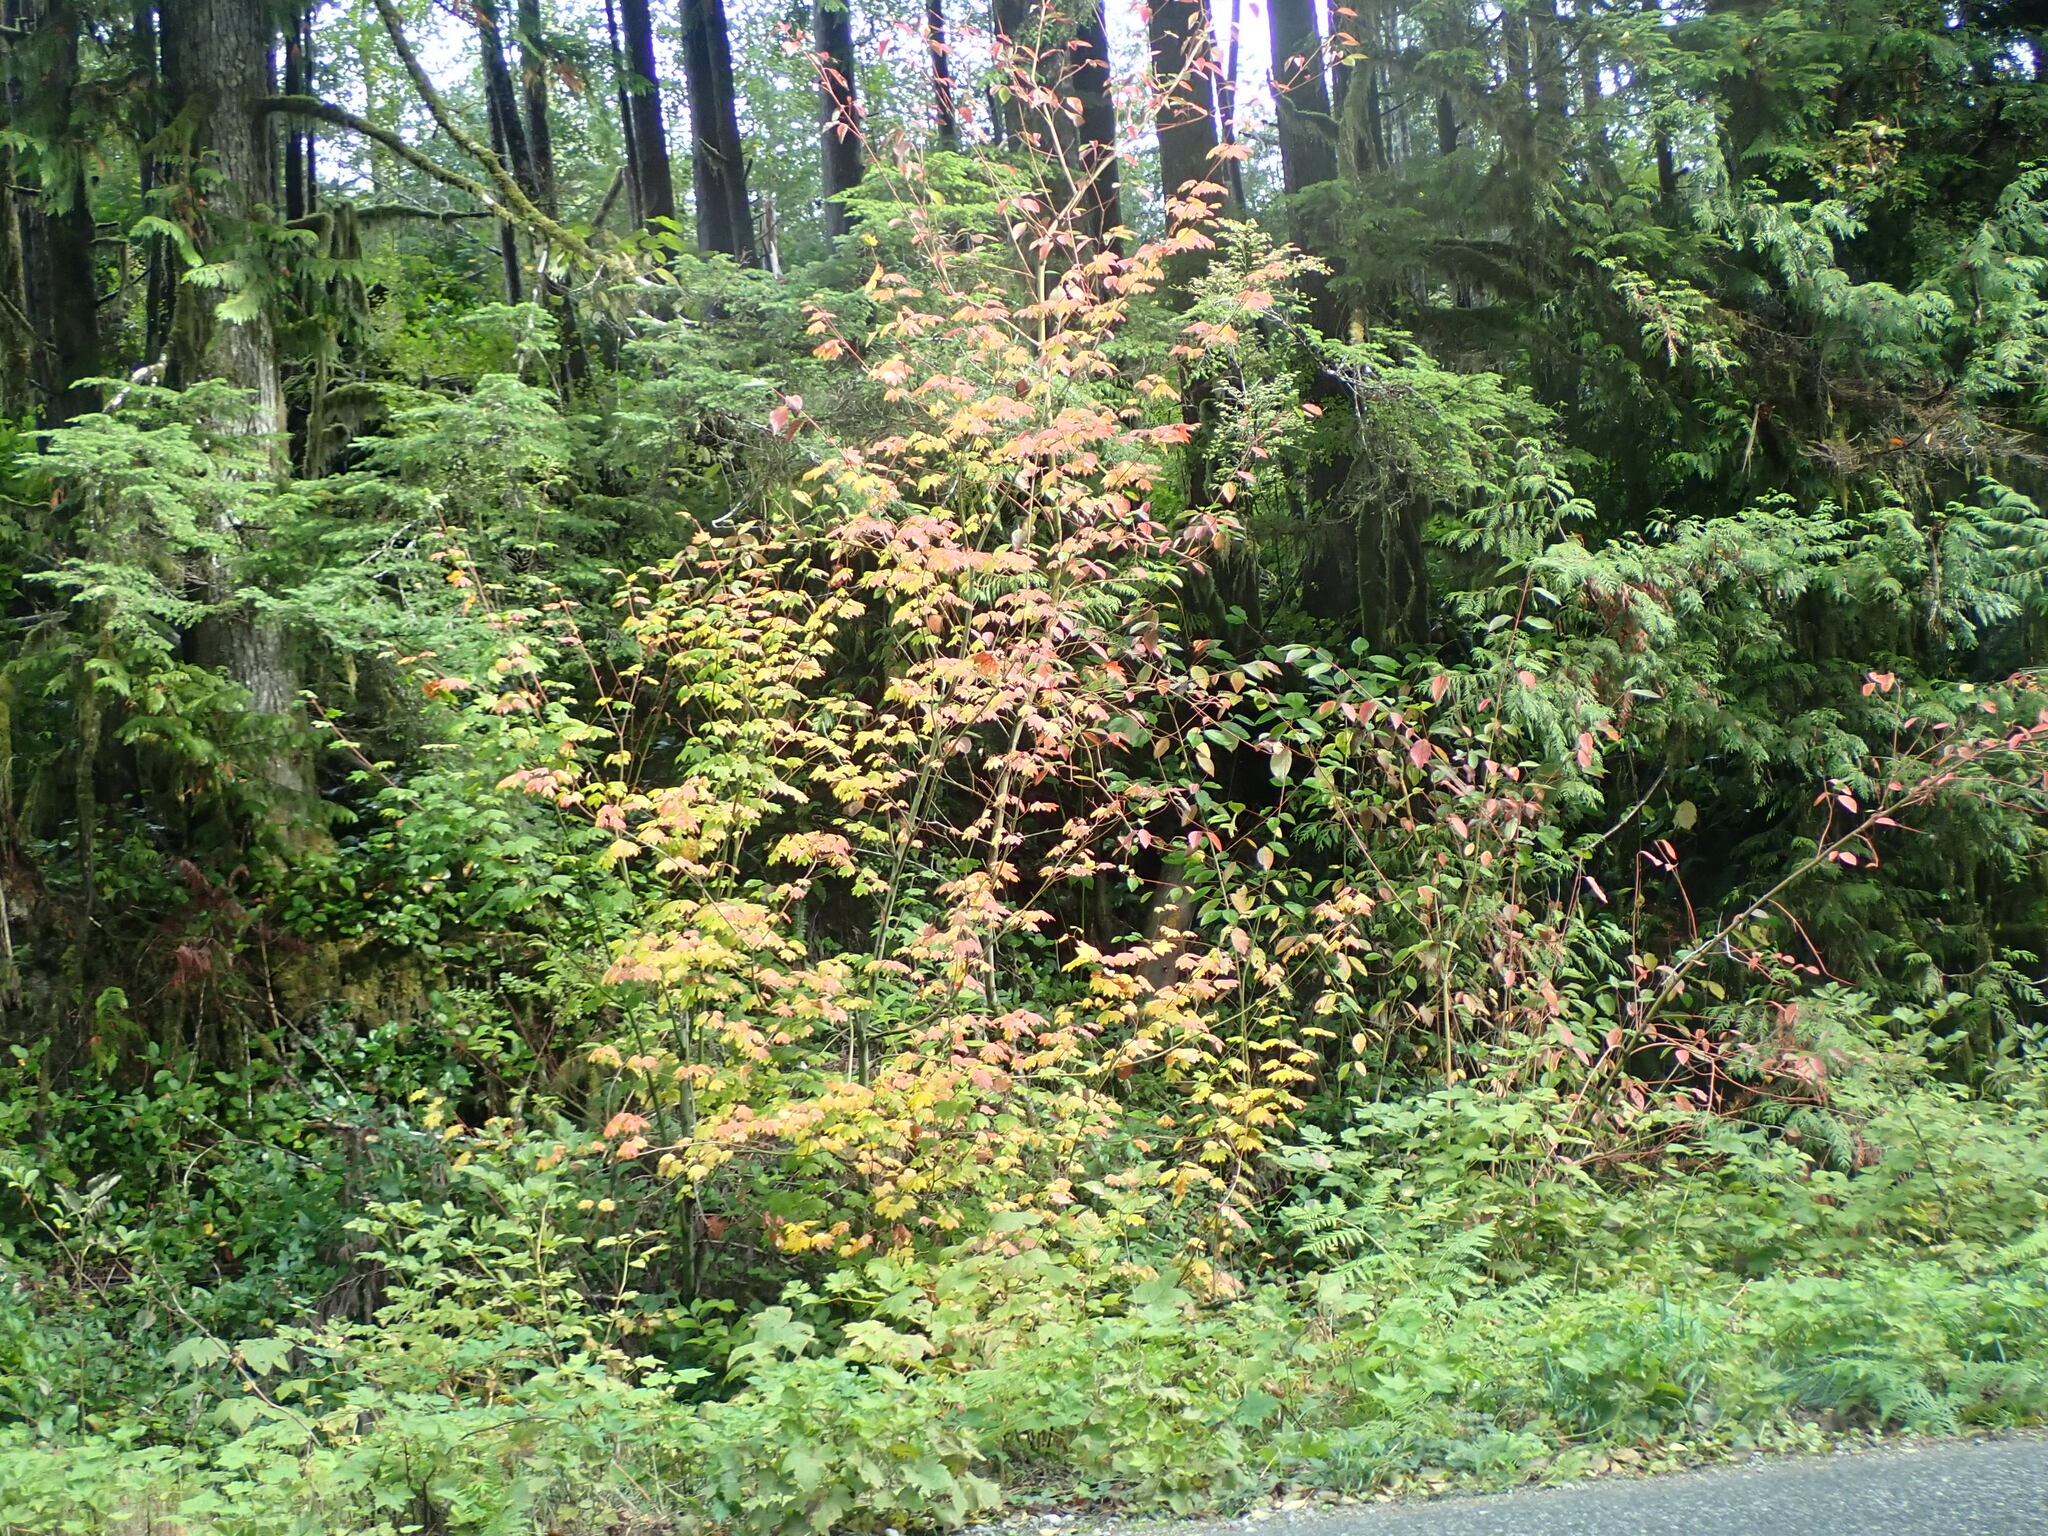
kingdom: Plantae
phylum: Tracheophyta
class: Magnoliopsida
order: Sapindales
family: Sapindaceae
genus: Acer
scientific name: Acer circinatum
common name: Vine maple
